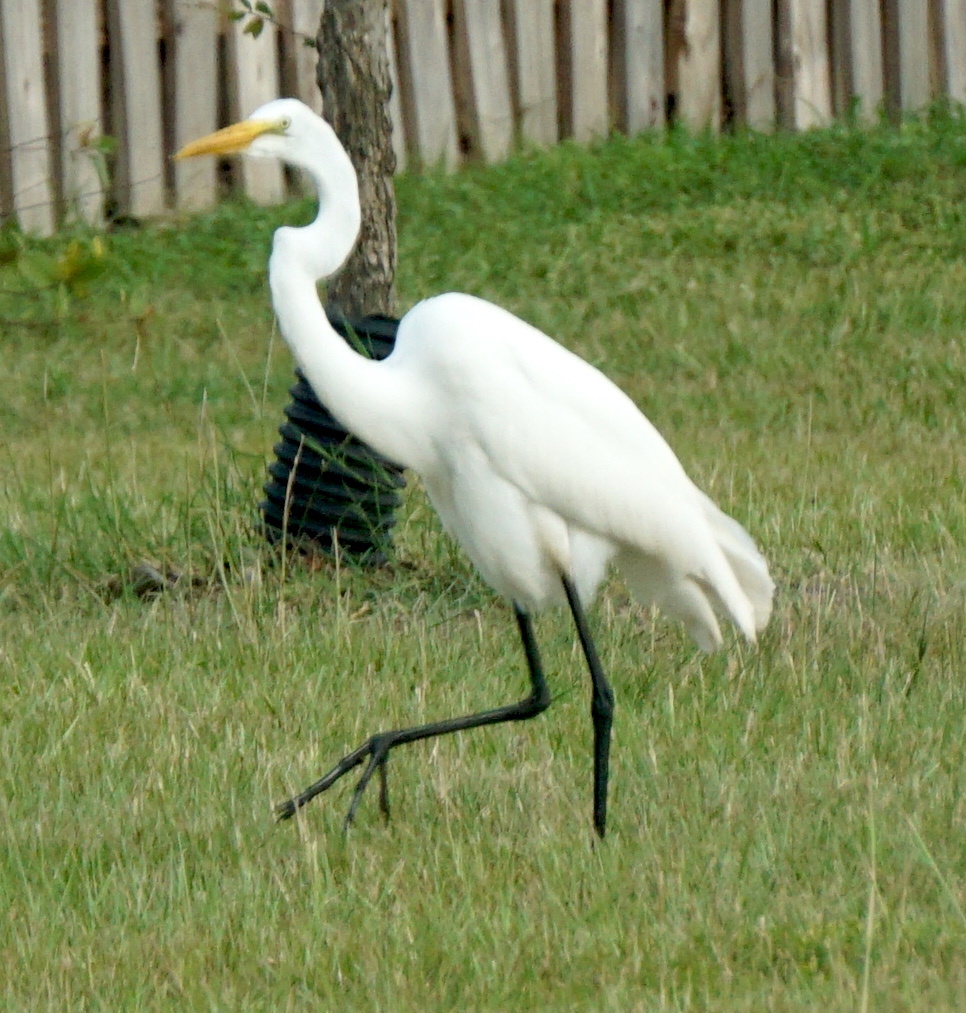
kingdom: Animalia
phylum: Chordata
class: Aves
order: Pelecaniformes
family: Ardeidae
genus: Ardea
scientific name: Ardea alba
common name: Great egret
